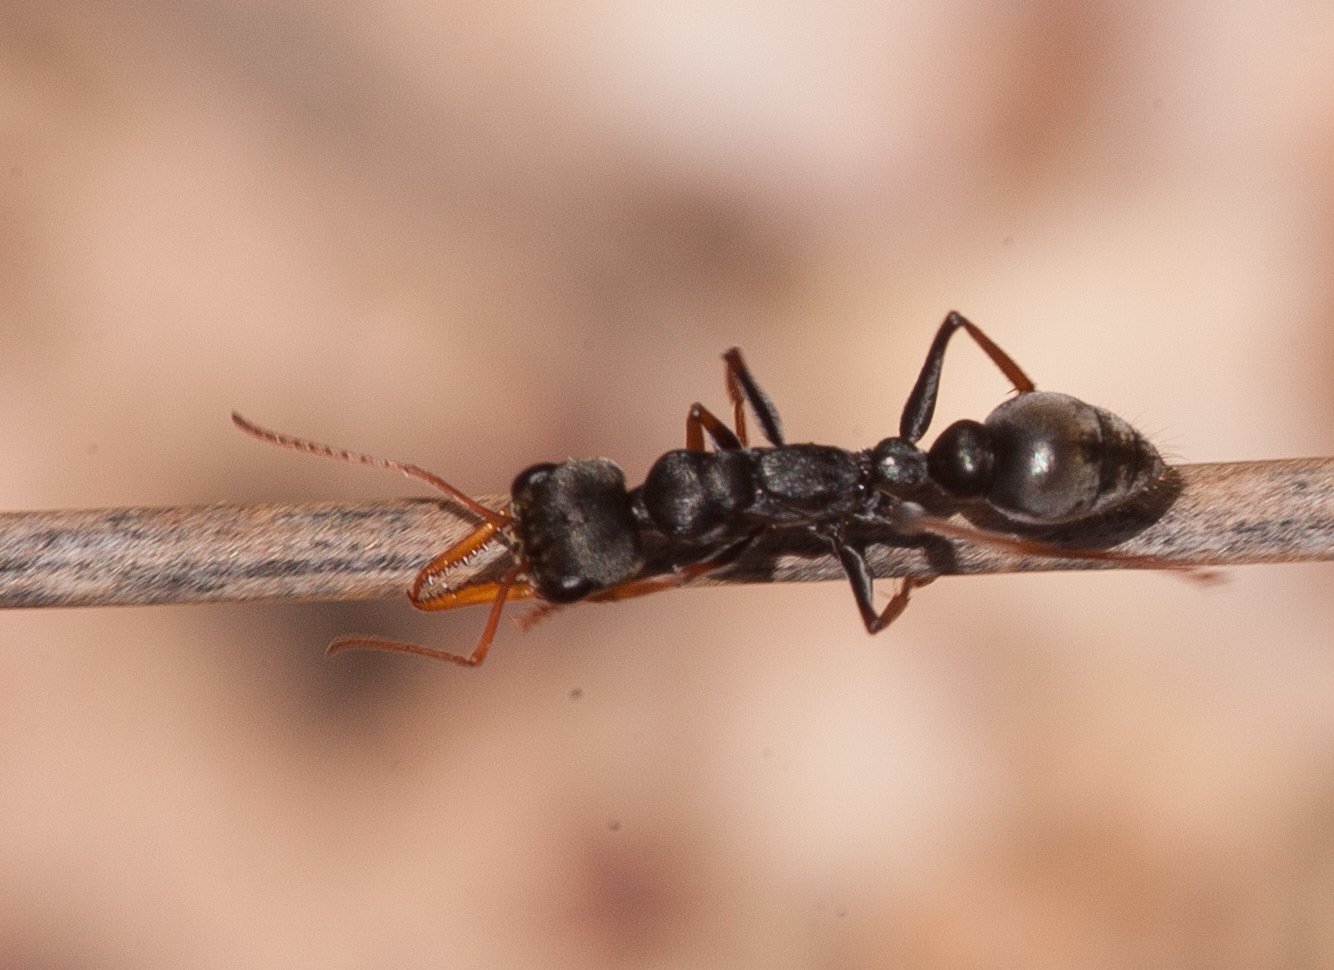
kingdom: Animalia
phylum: Arthropoda
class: Insecta
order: Hymenoptera
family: Formicidae
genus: Myrmecia
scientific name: Myrmecia pilosula
